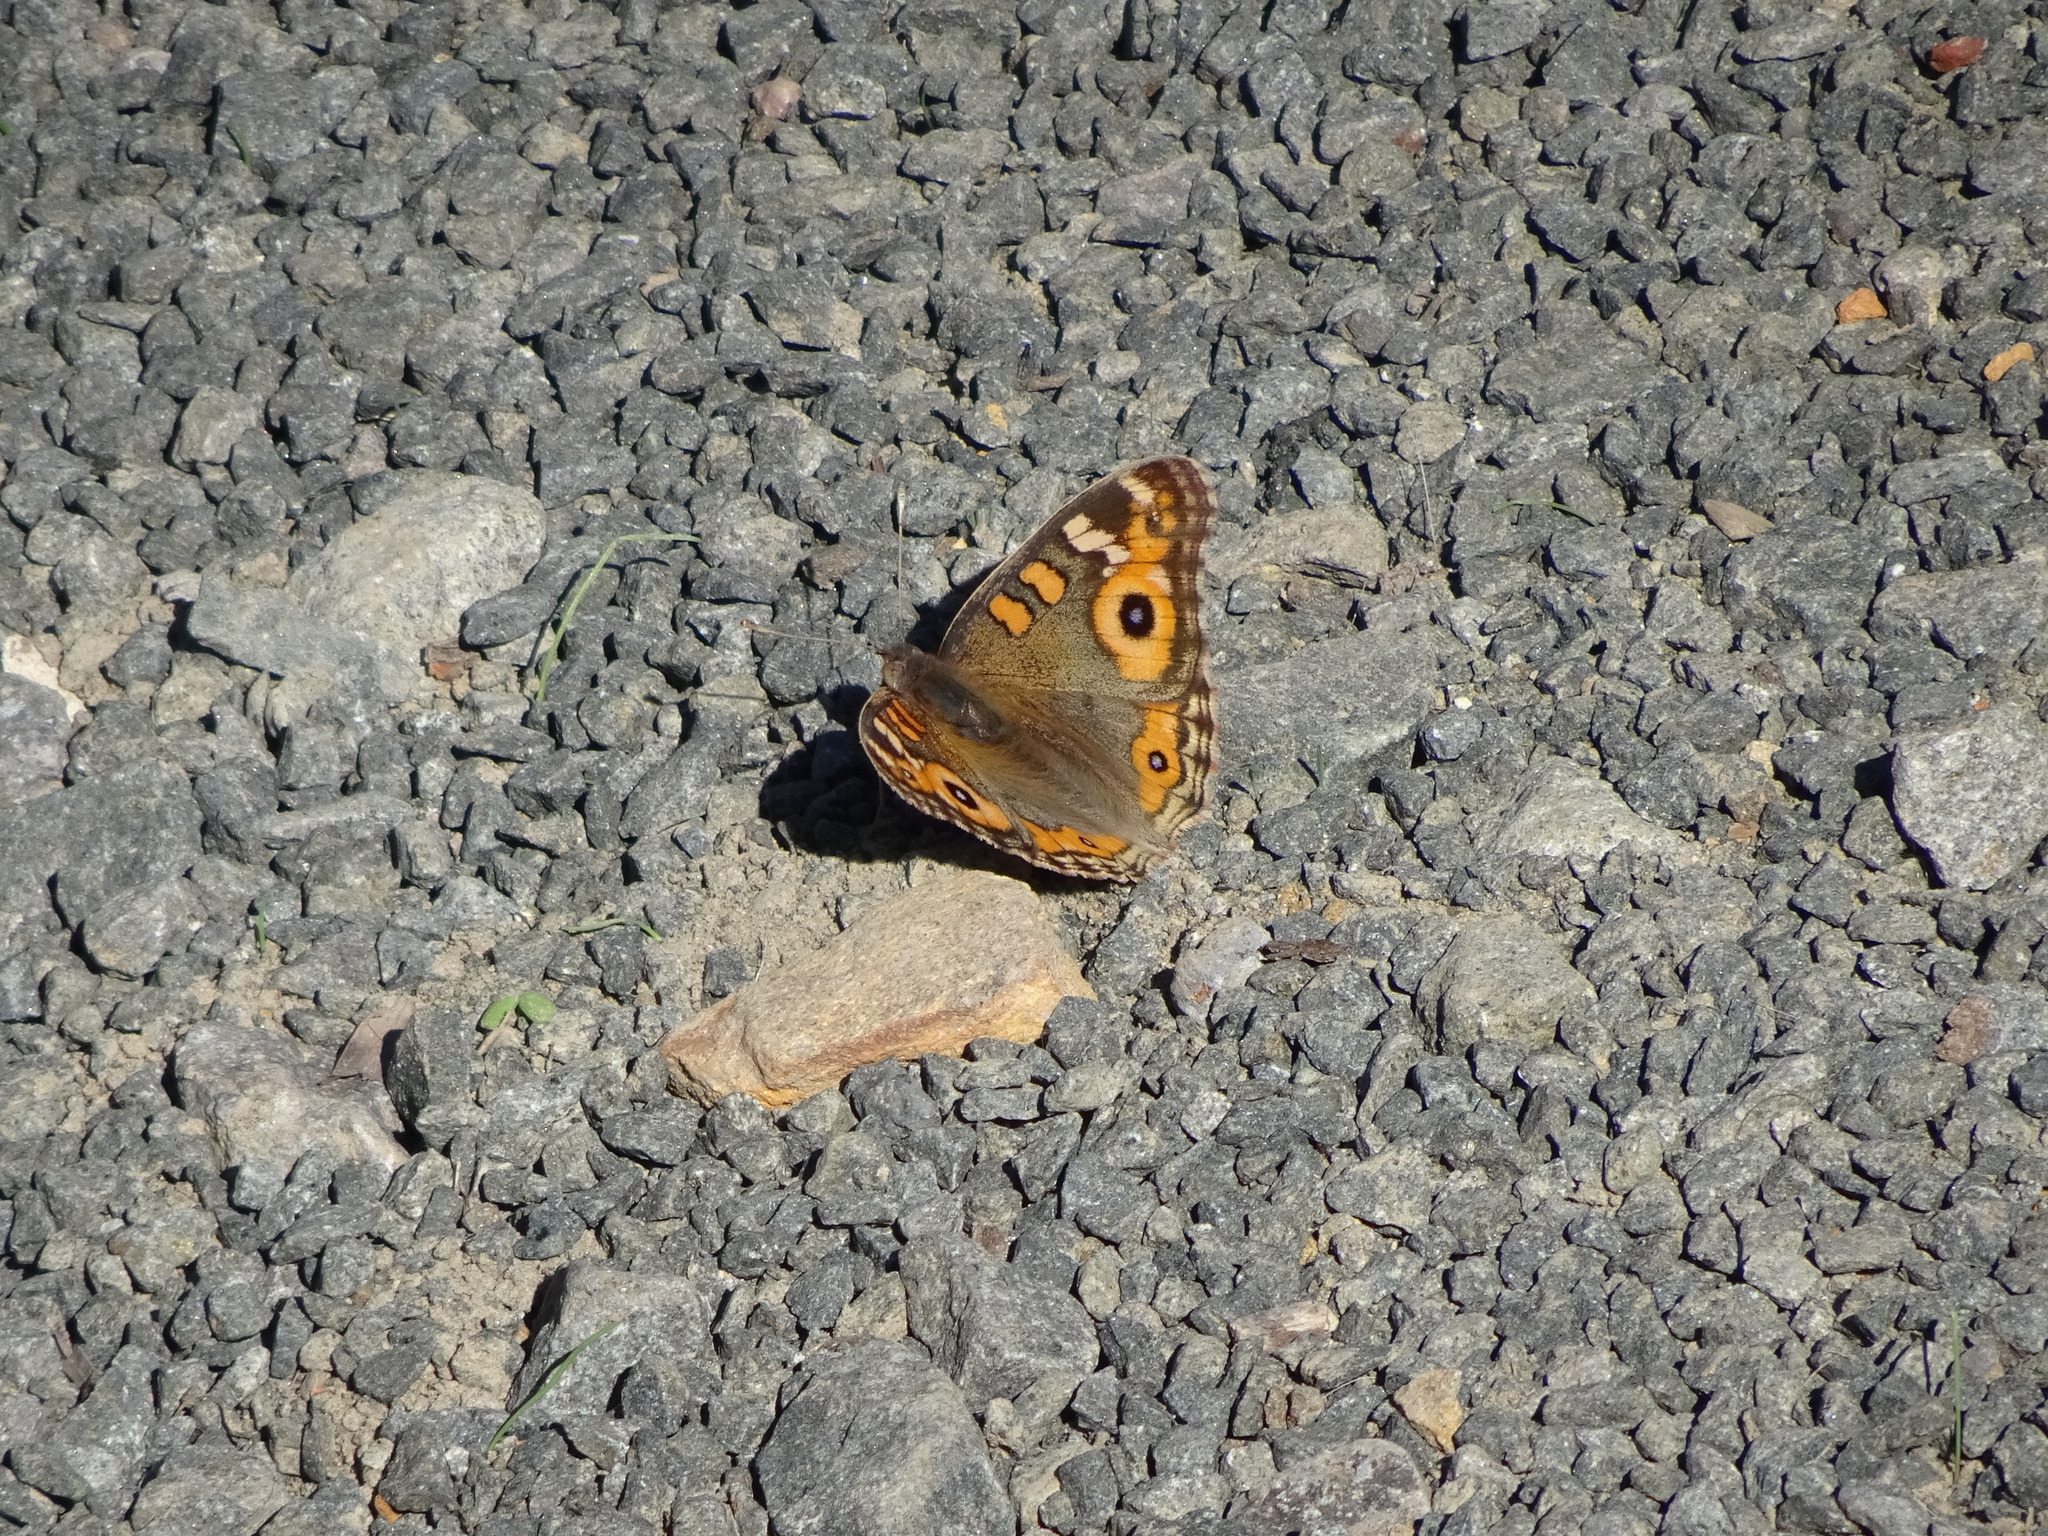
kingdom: Animalia
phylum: Arthropoda
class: Insecta
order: Lepidoptera
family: Nymphalidae
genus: Junonia
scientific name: Junonia villida
